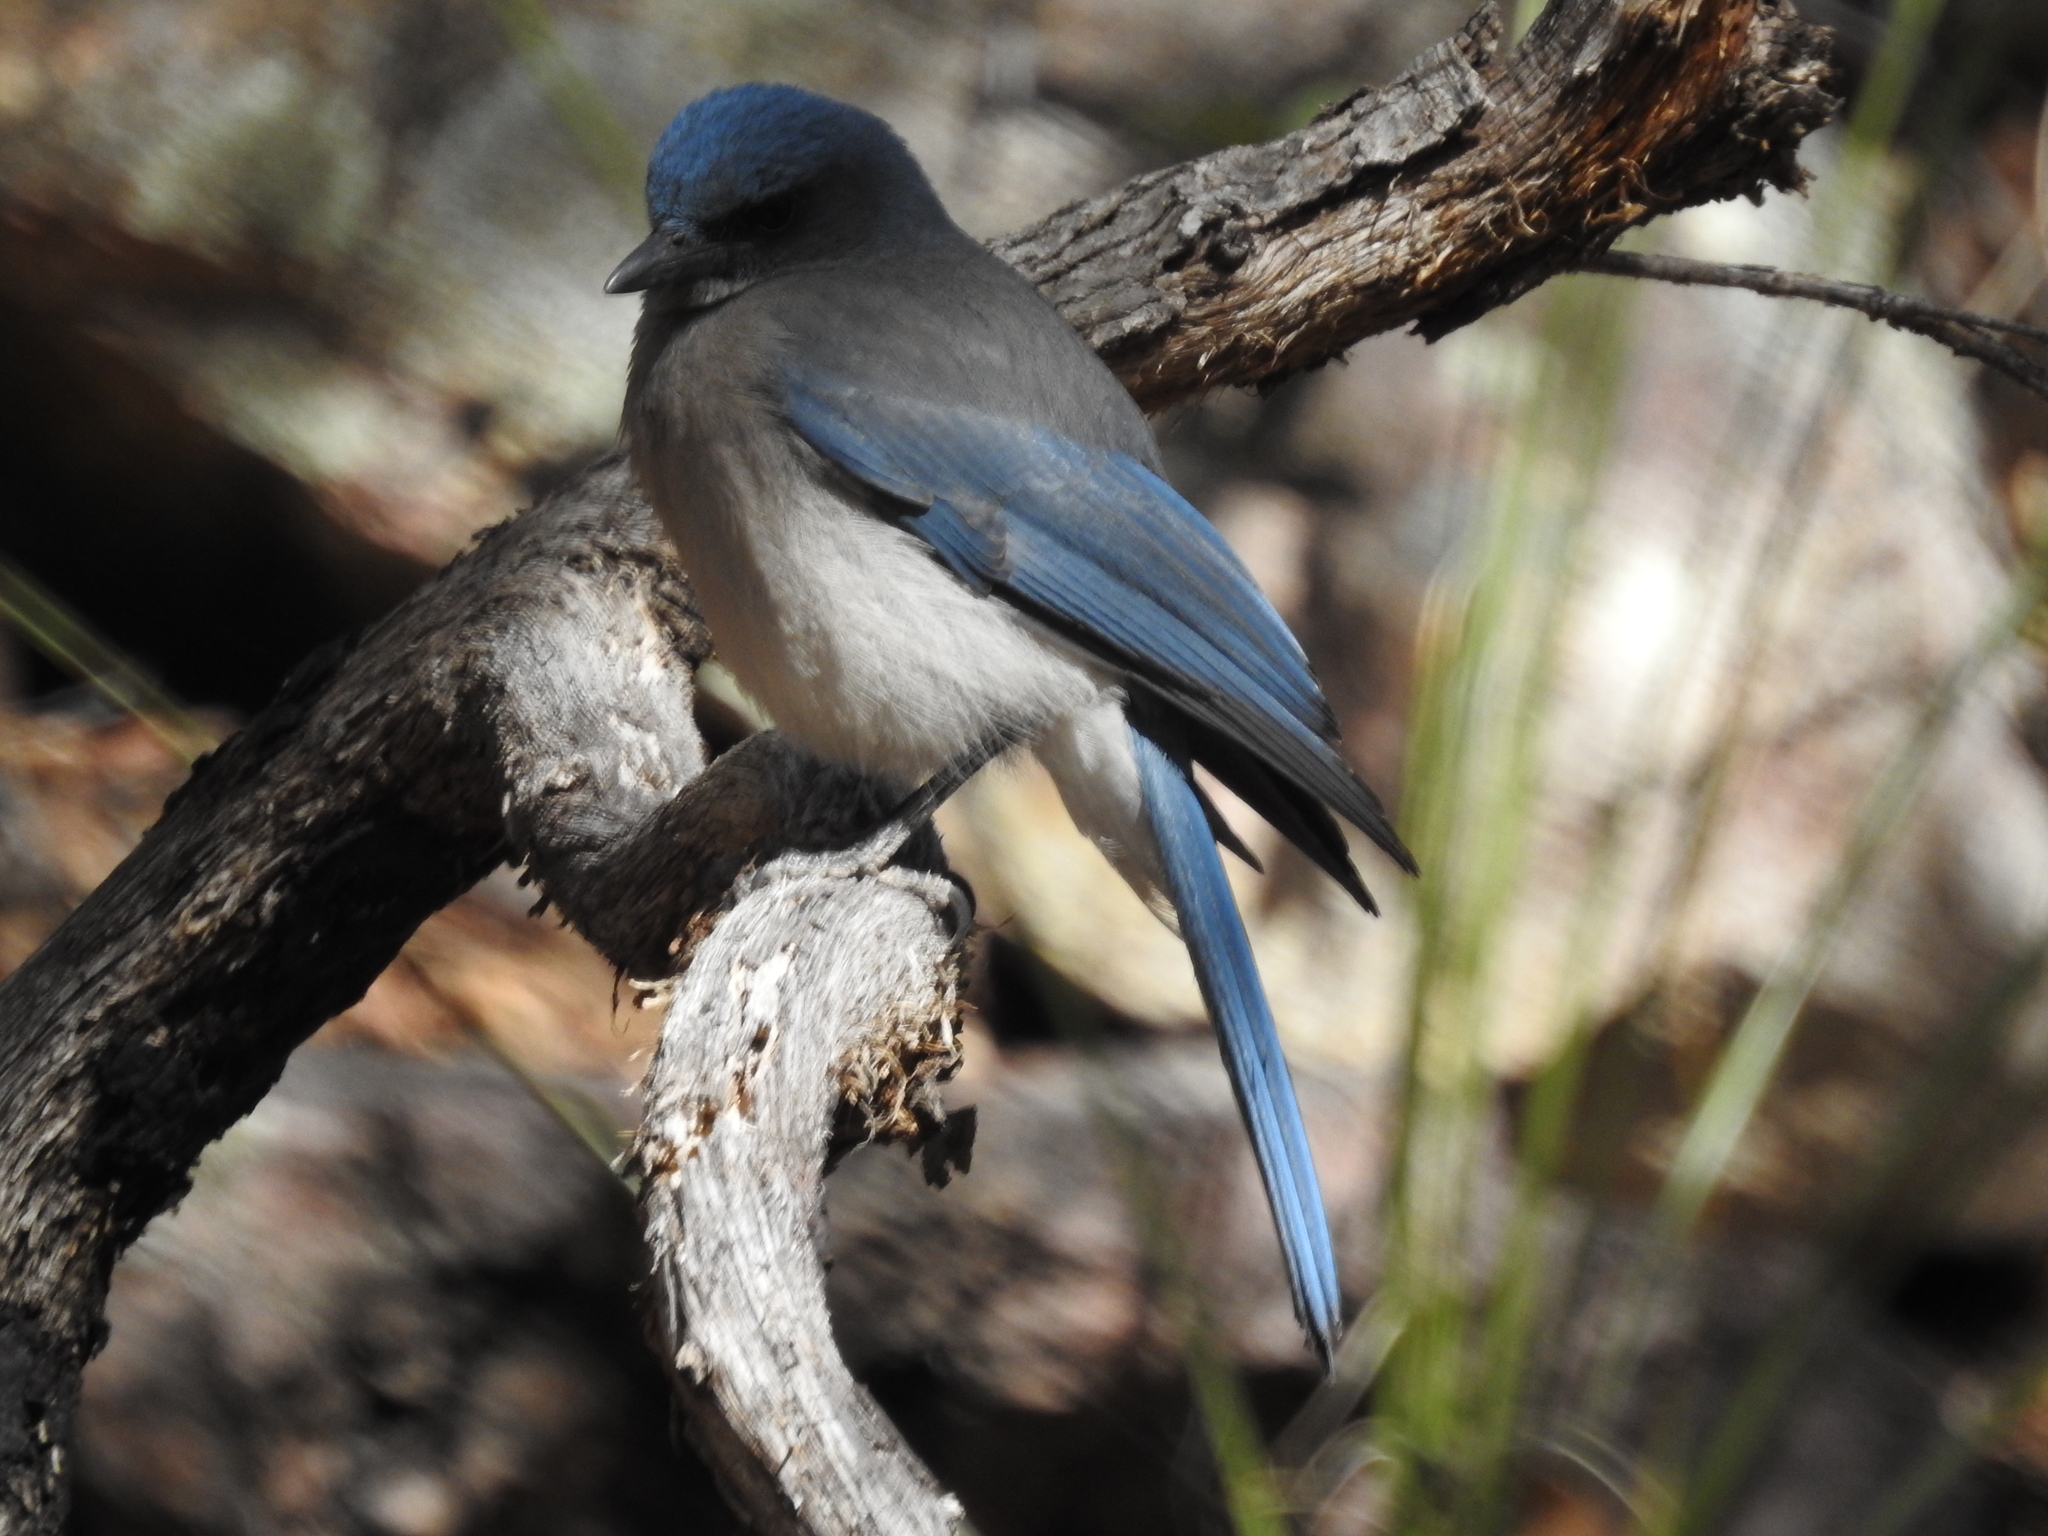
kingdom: Animalia
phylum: Chordata
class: Aves
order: Passeriformes
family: Corvidae
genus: Aphelocoma
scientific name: Aphelocoma wollweberi
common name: Mexican jay
